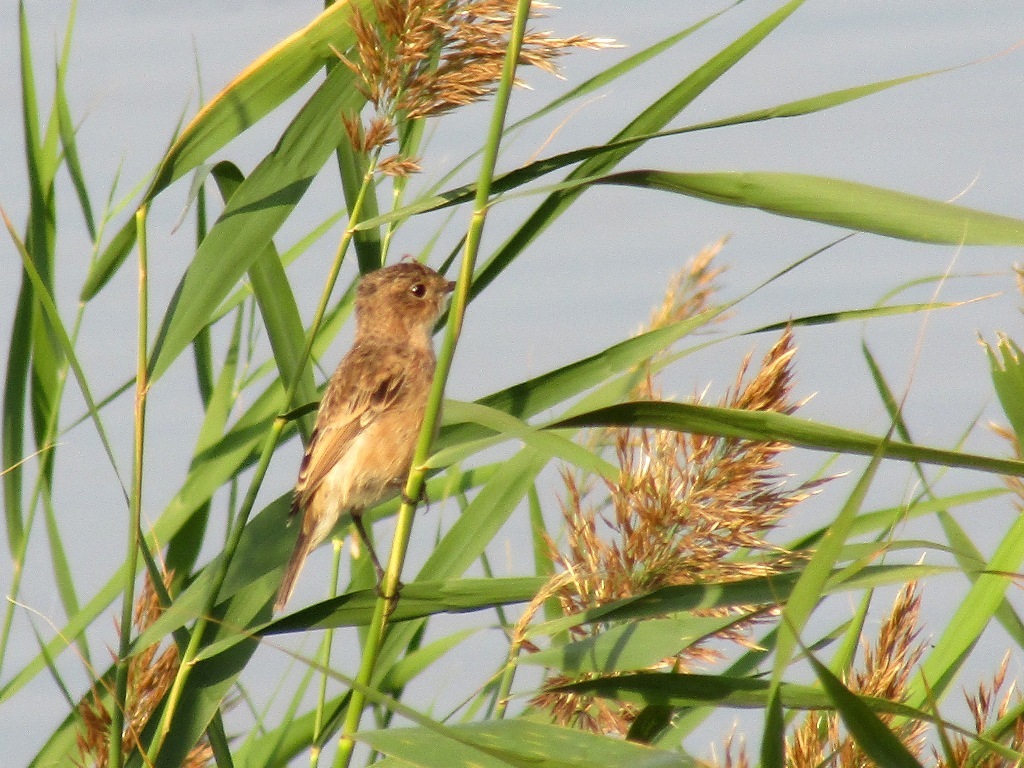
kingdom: Animalia
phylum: Chordata
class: Aves
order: Passeriformes
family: Muscicapidae
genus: Saxicola
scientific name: Saxicola maurus
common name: Siberian stonechat
